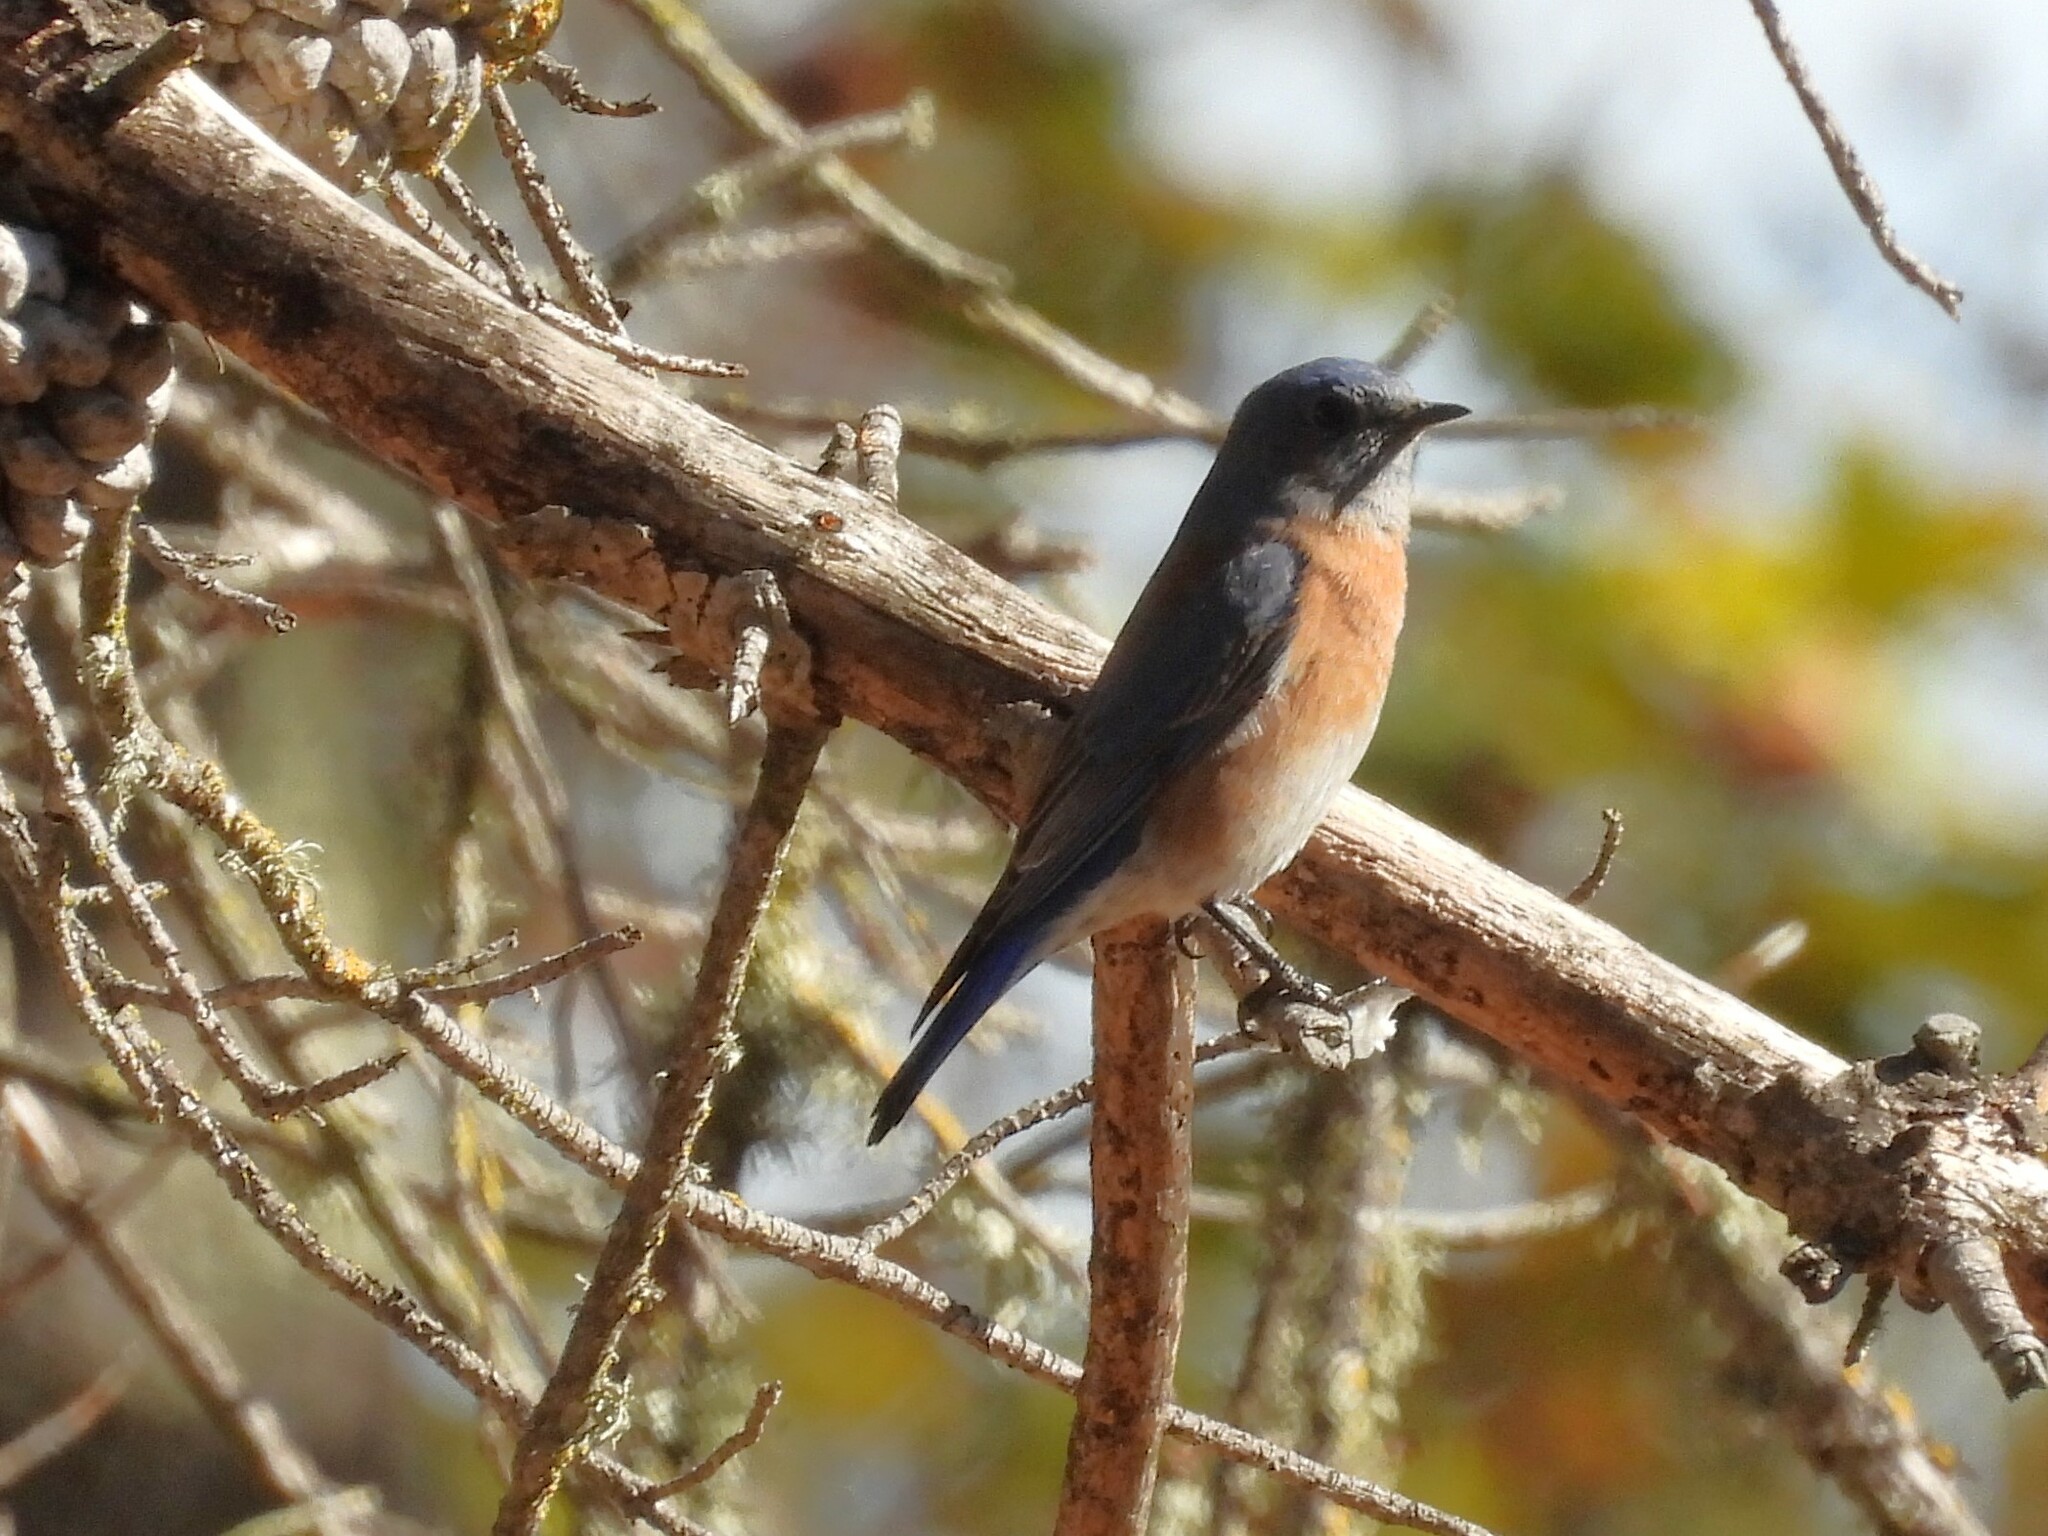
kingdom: Animalia
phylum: Chordata
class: Aves
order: Passeriformes
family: Turdidae
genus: Sialia
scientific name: Sialia mexicana
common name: Western bluebird
